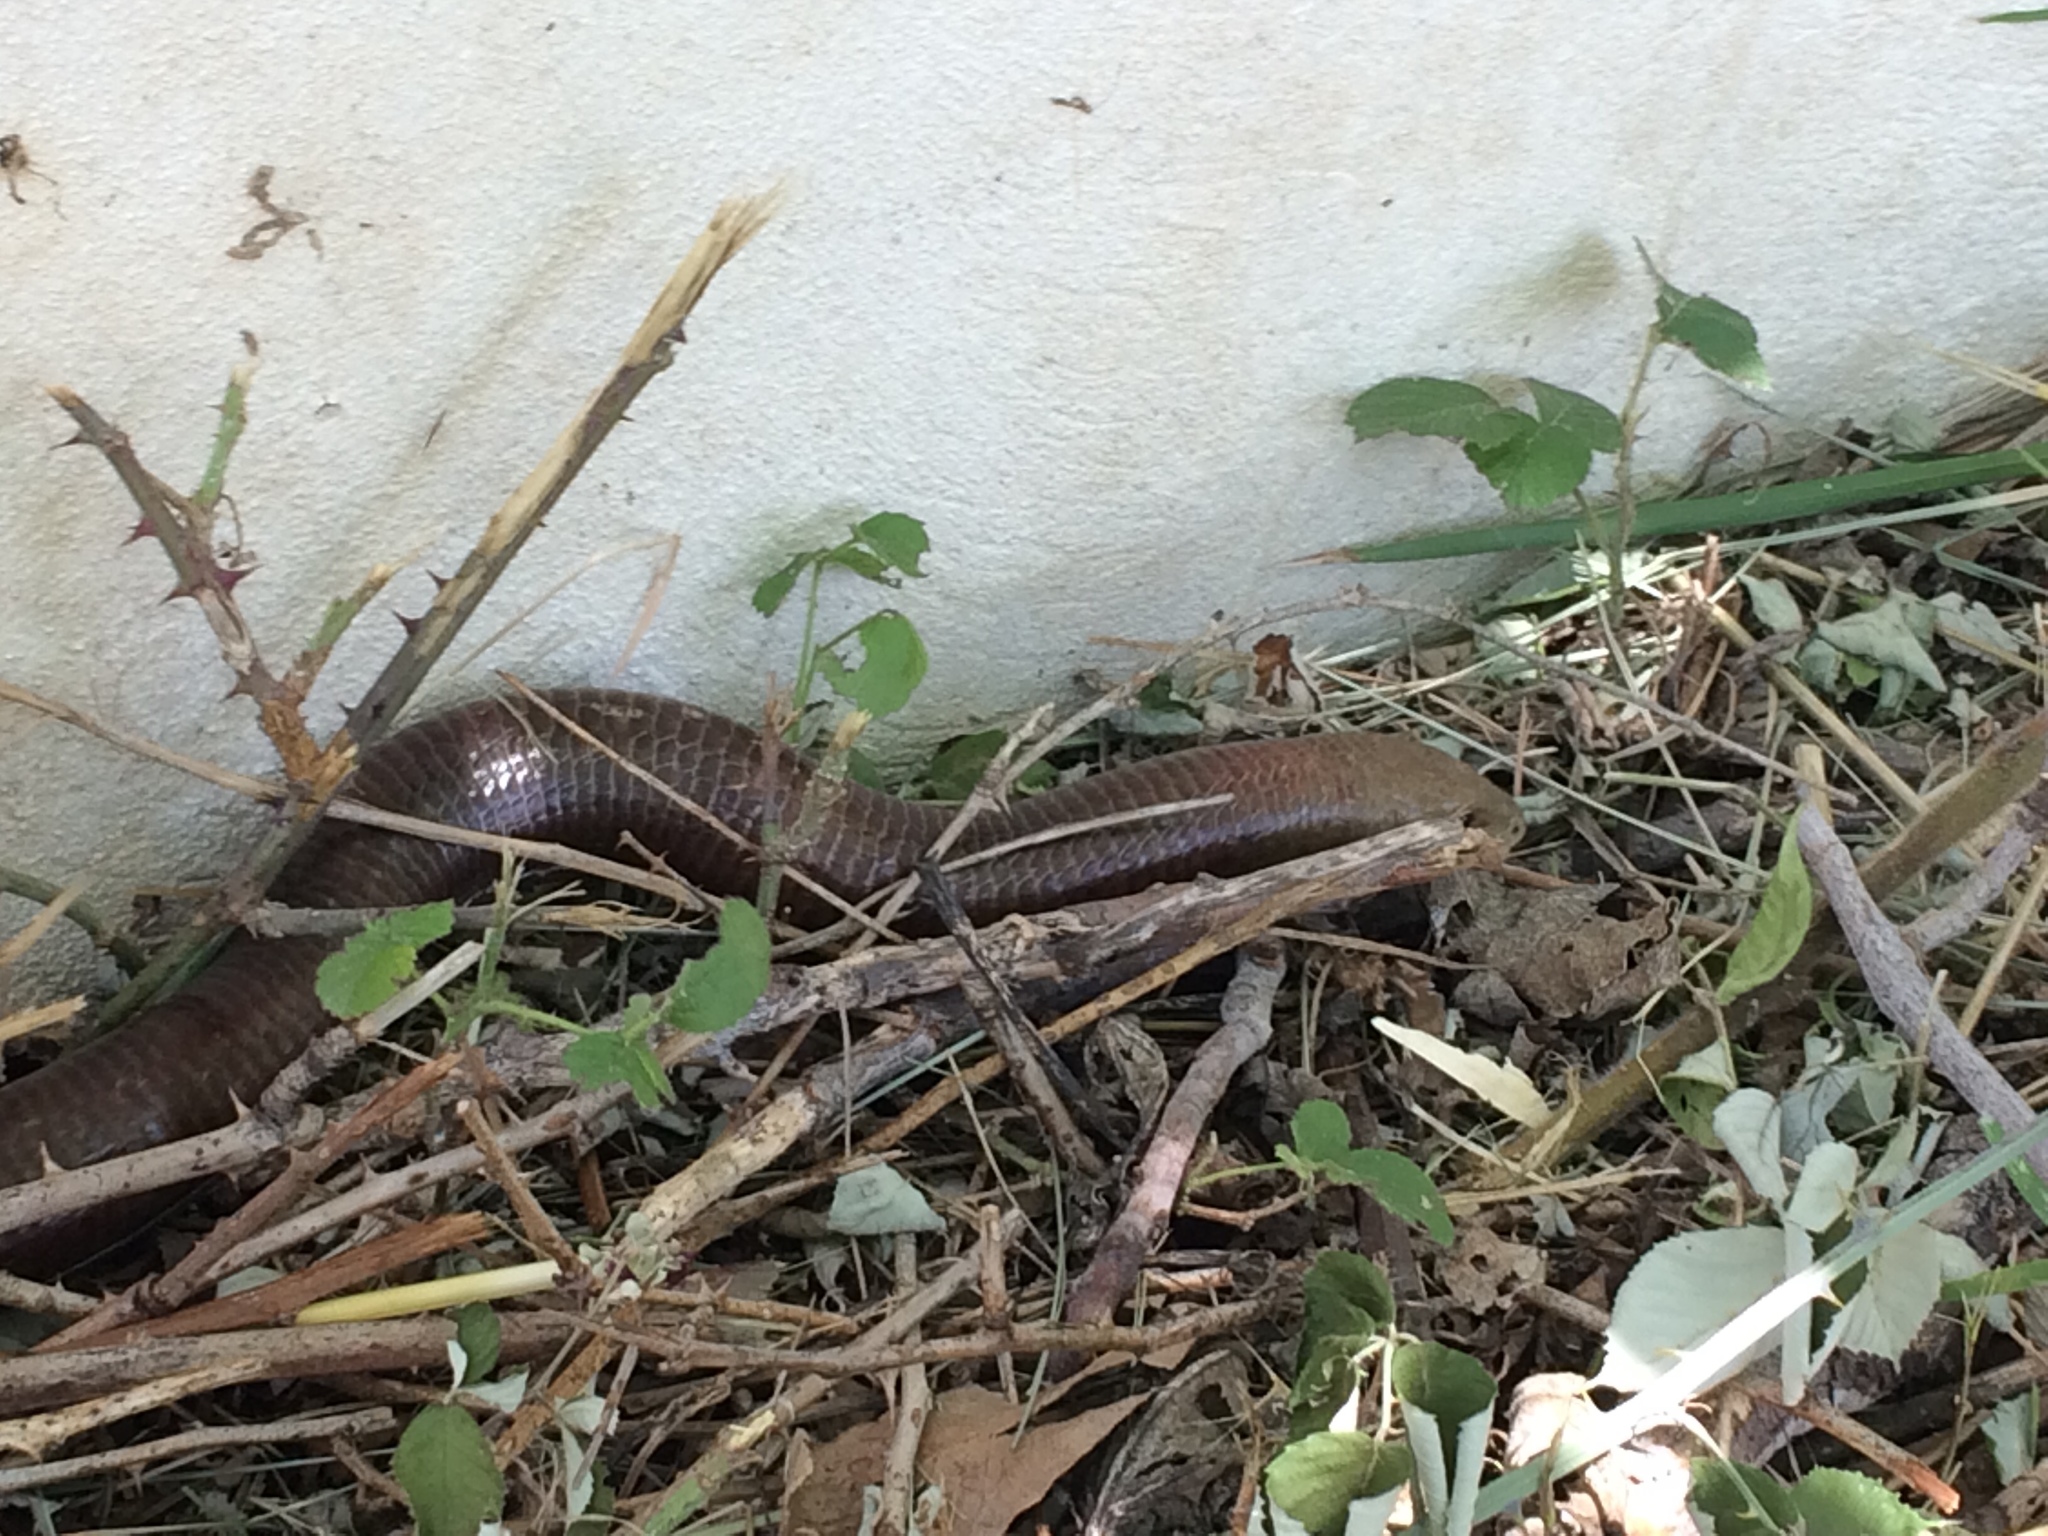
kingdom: Animalia
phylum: Chordata
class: Squamata
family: Anguidae
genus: Pseudopus
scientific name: Pseudopus apodus
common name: European glass lizard
